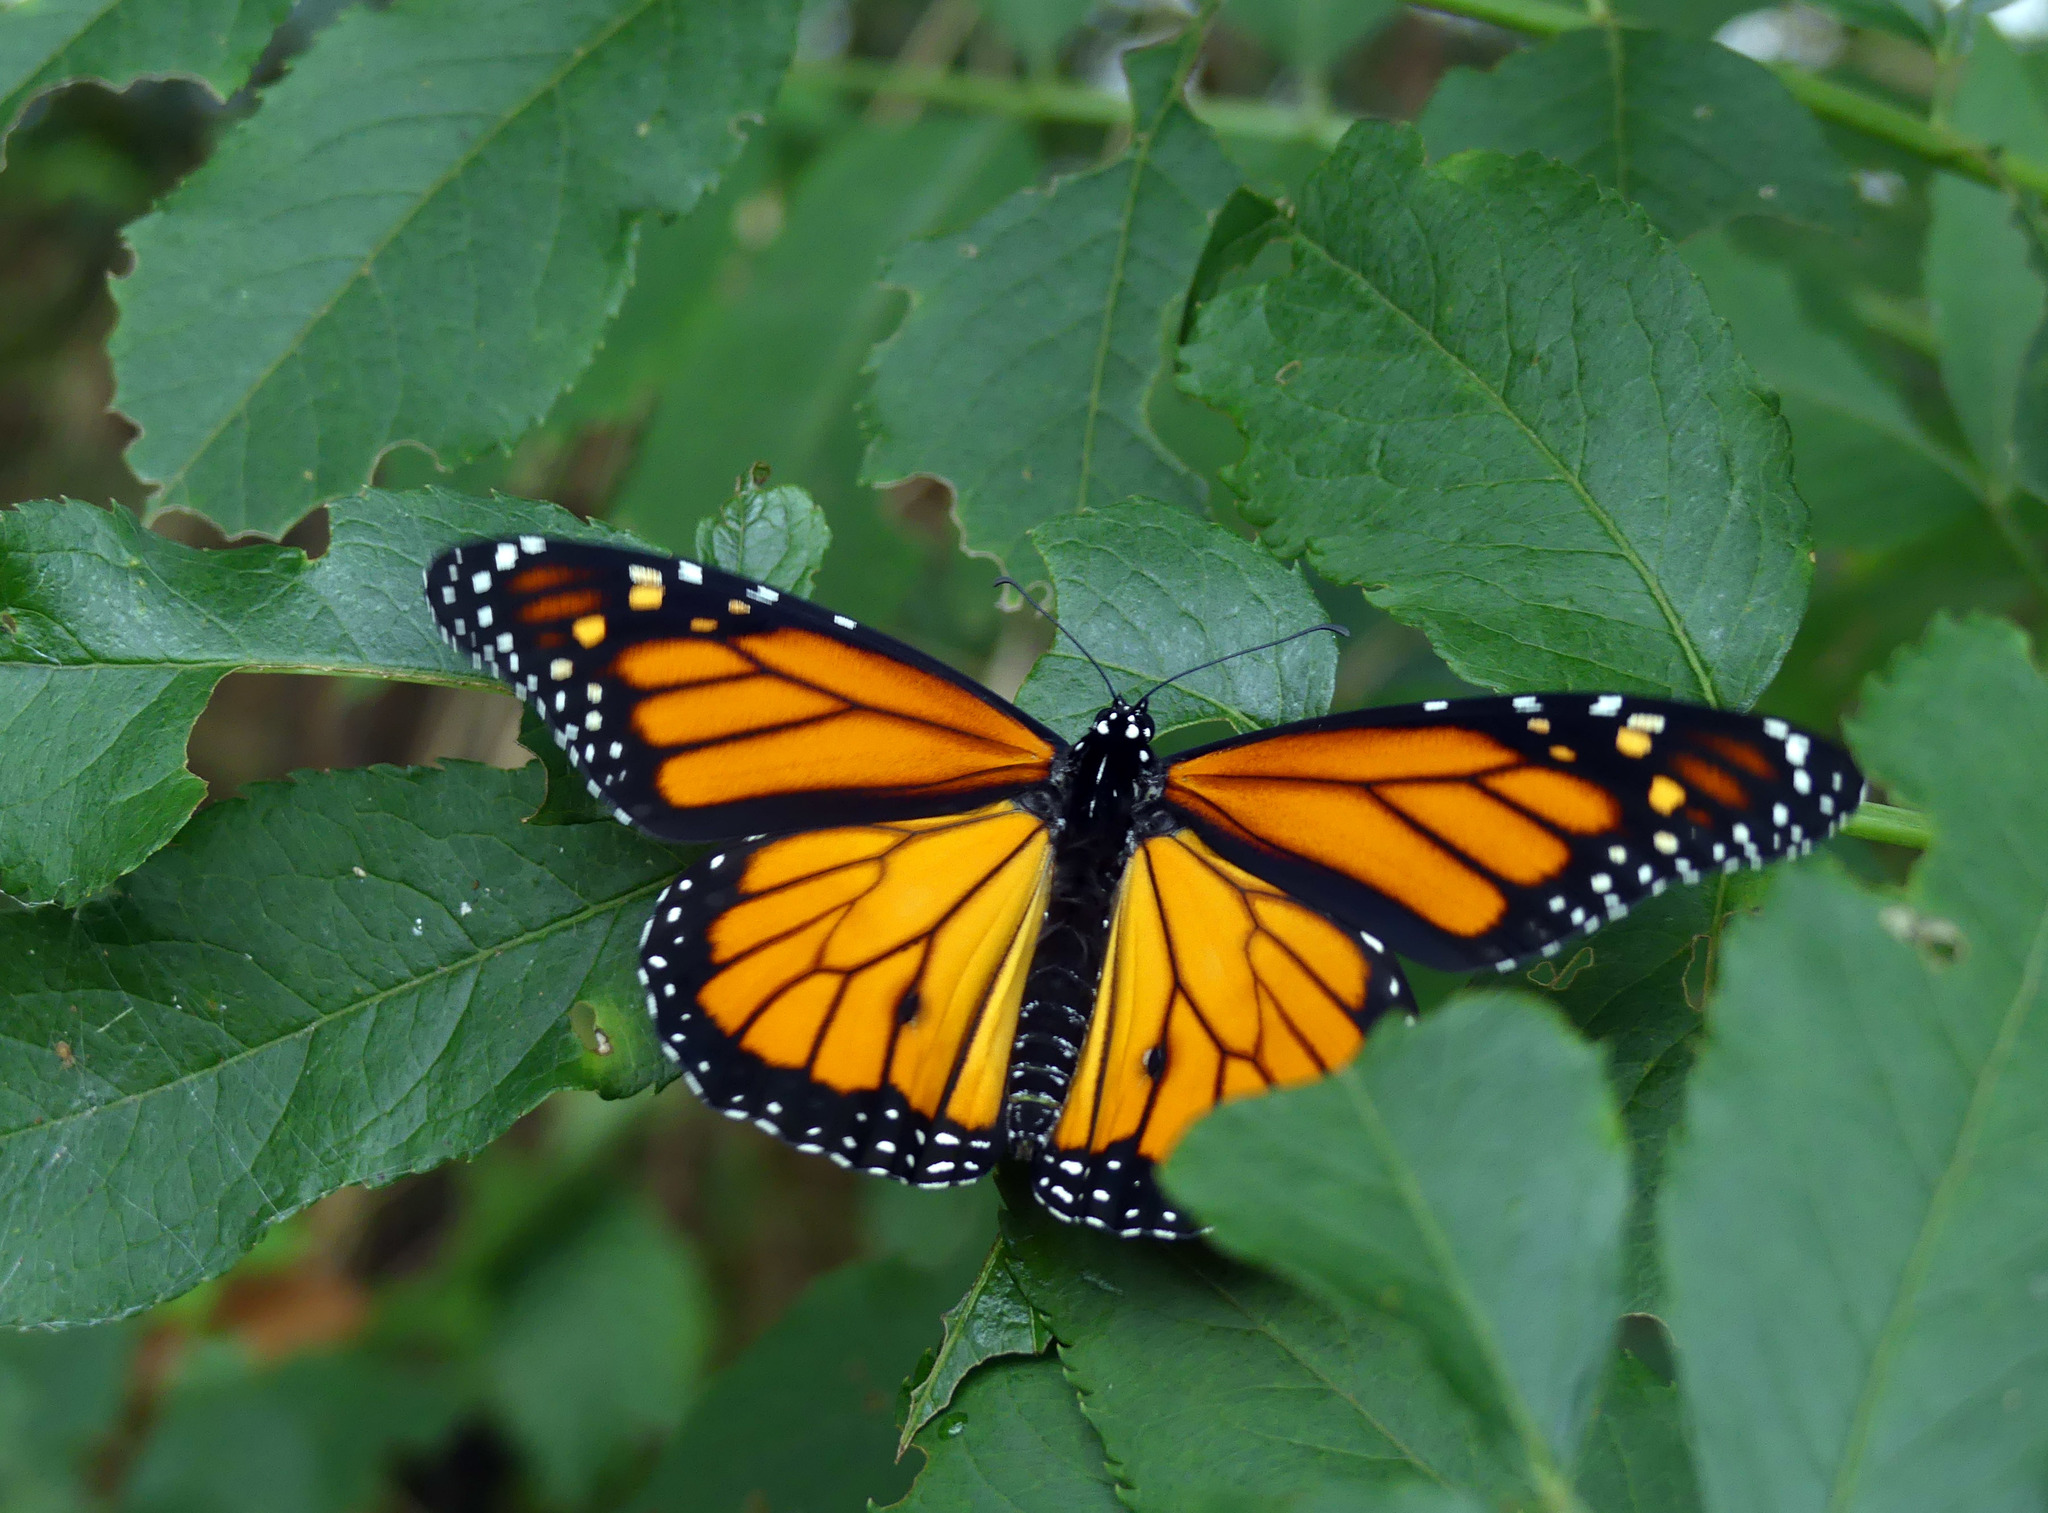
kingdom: Animalia
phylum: Arthropoda
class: Insecta
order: Lepidoptera
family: Nymphalidae
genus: Danaus
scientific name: Danaus plexippus
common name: Monarch
